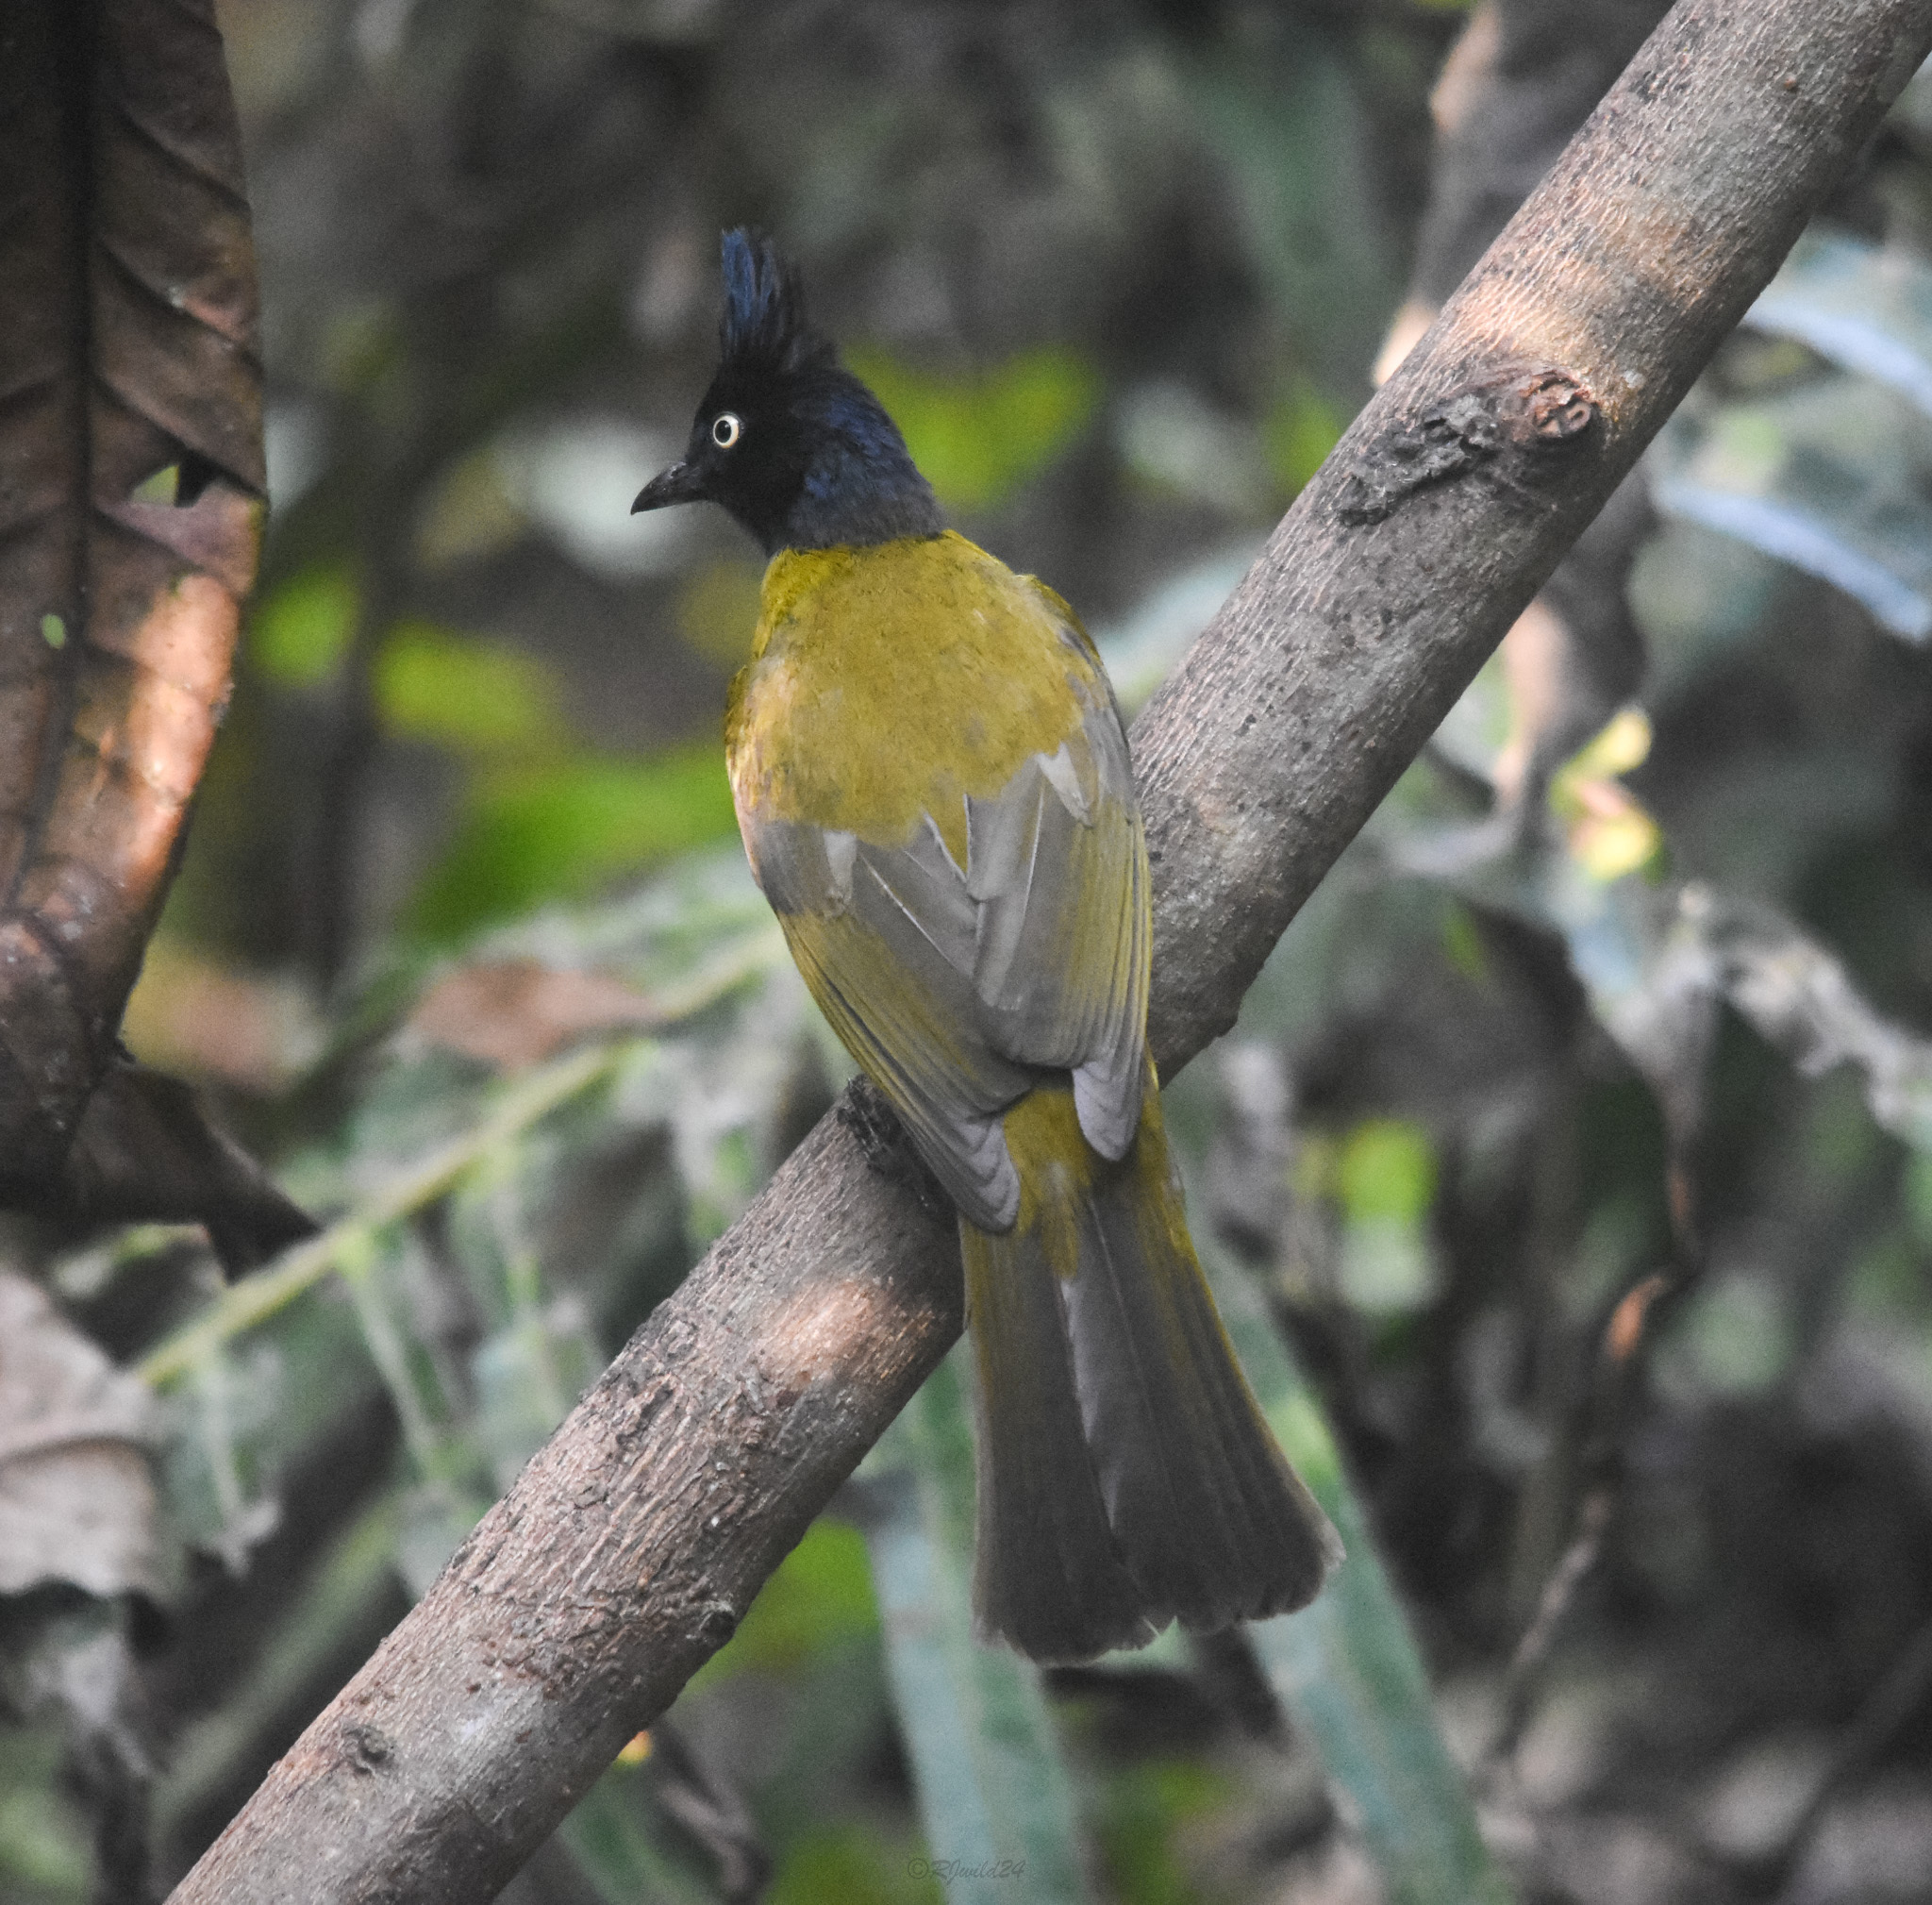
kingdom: Animalia
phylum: Chordata
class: Aves
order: Passeriformes
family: Pycnonotidae
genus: Pycnonotus
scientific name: Pycnonotus flaviventris
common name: Black-crested bulbul
